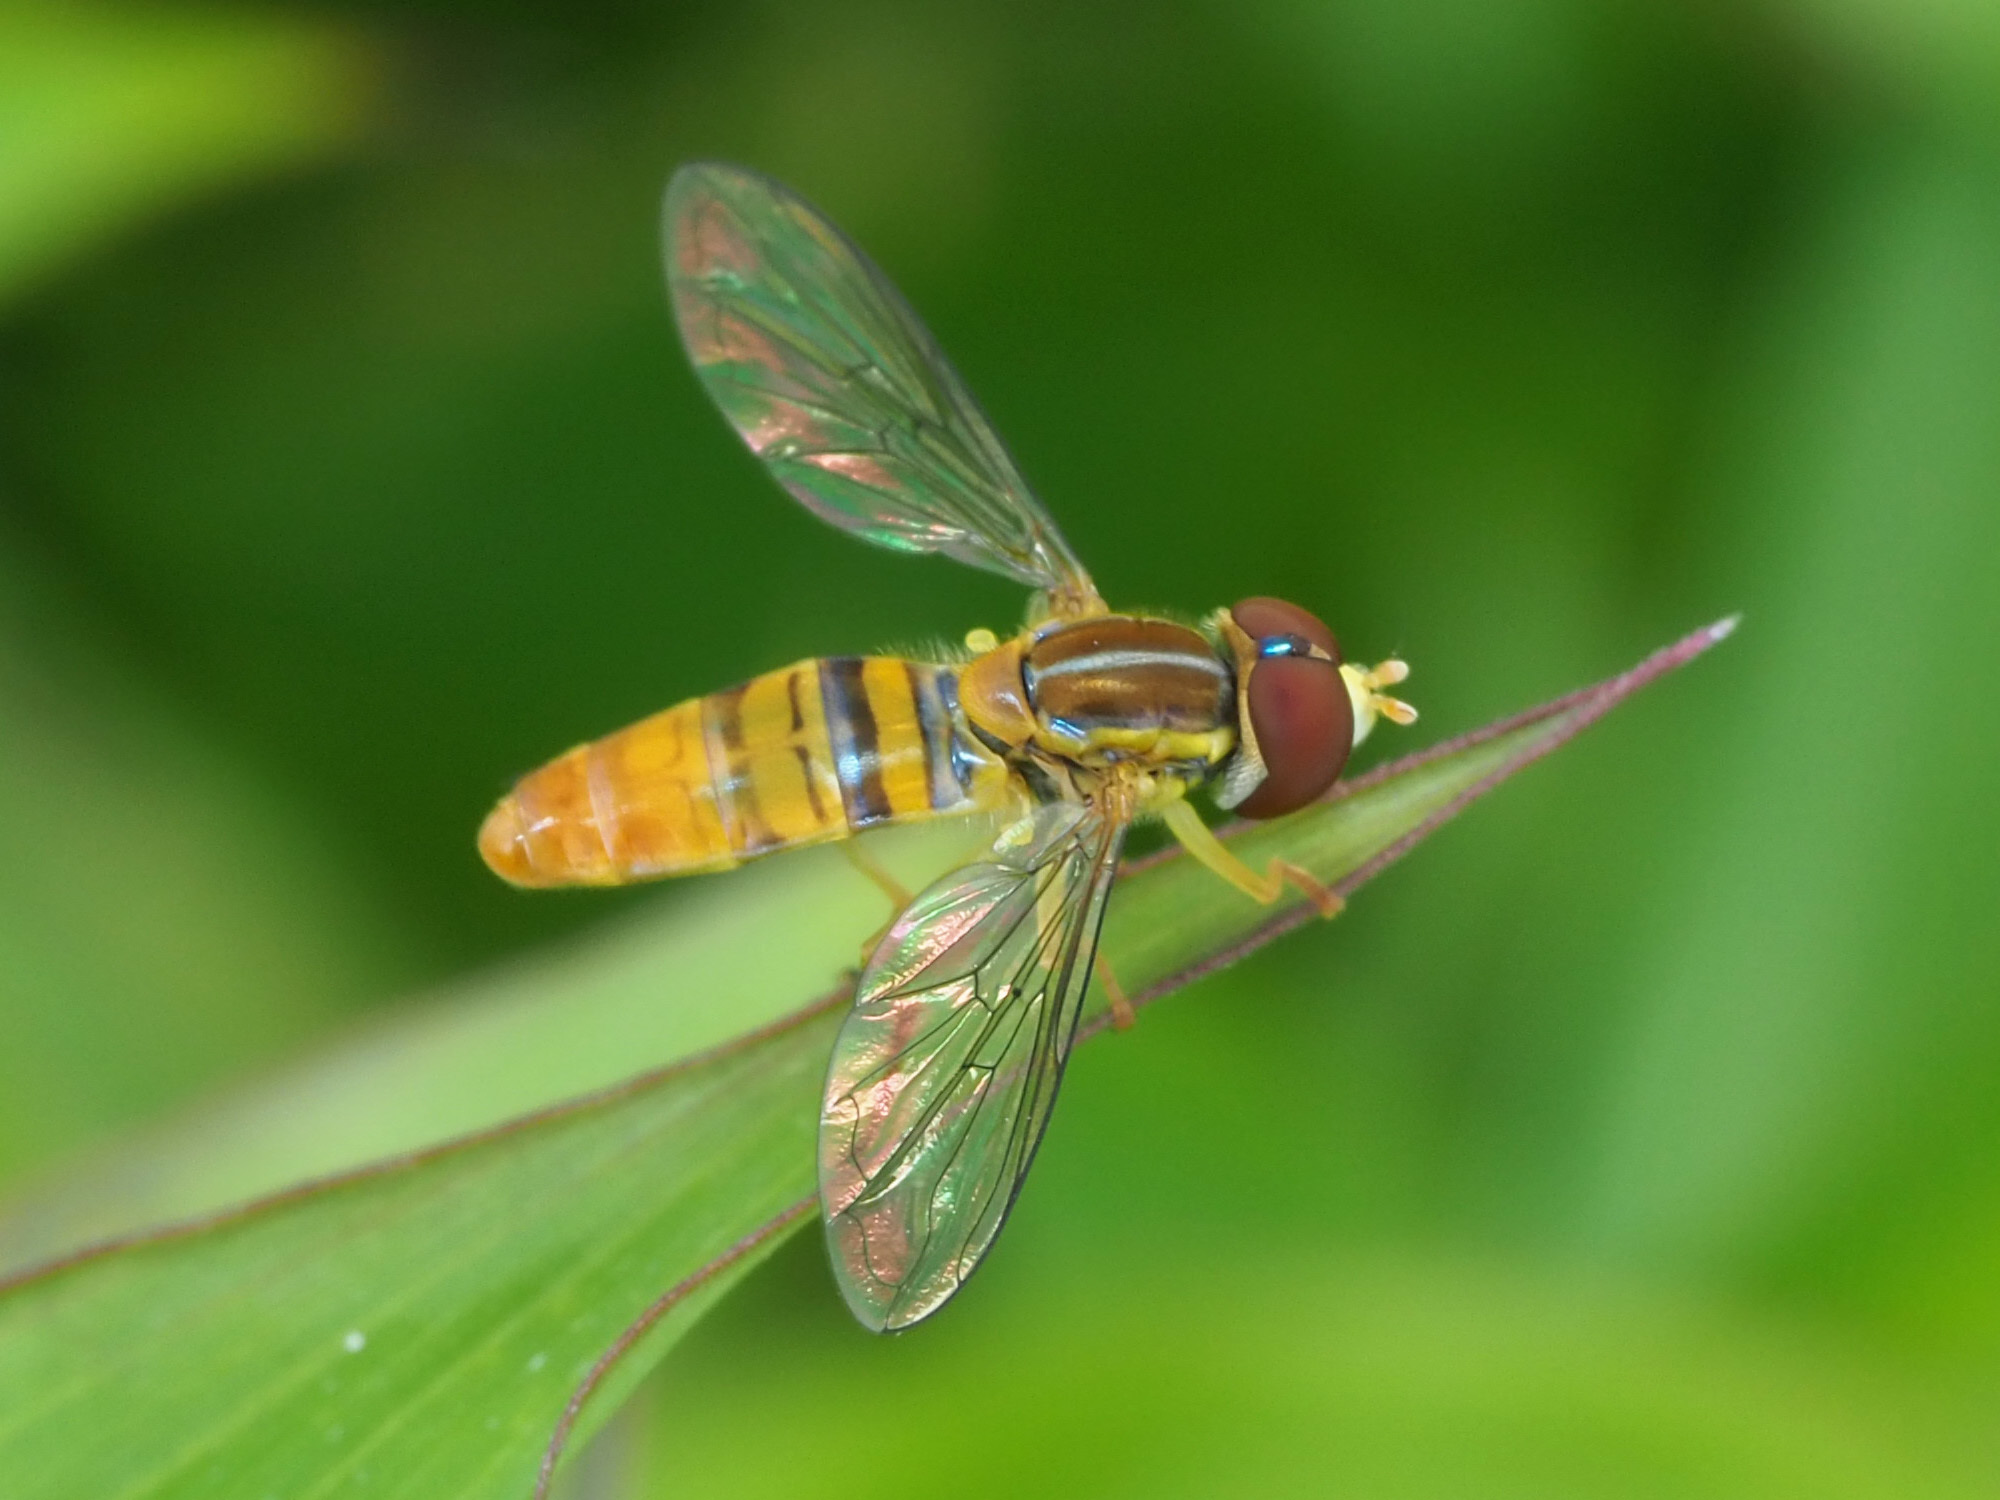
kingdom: Animalia
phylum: Arthropoda
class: Insecta
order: Diptera
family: Syrphidae
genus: Toxomerus
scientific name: Toxomerus politus
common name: Maize calligrapher
